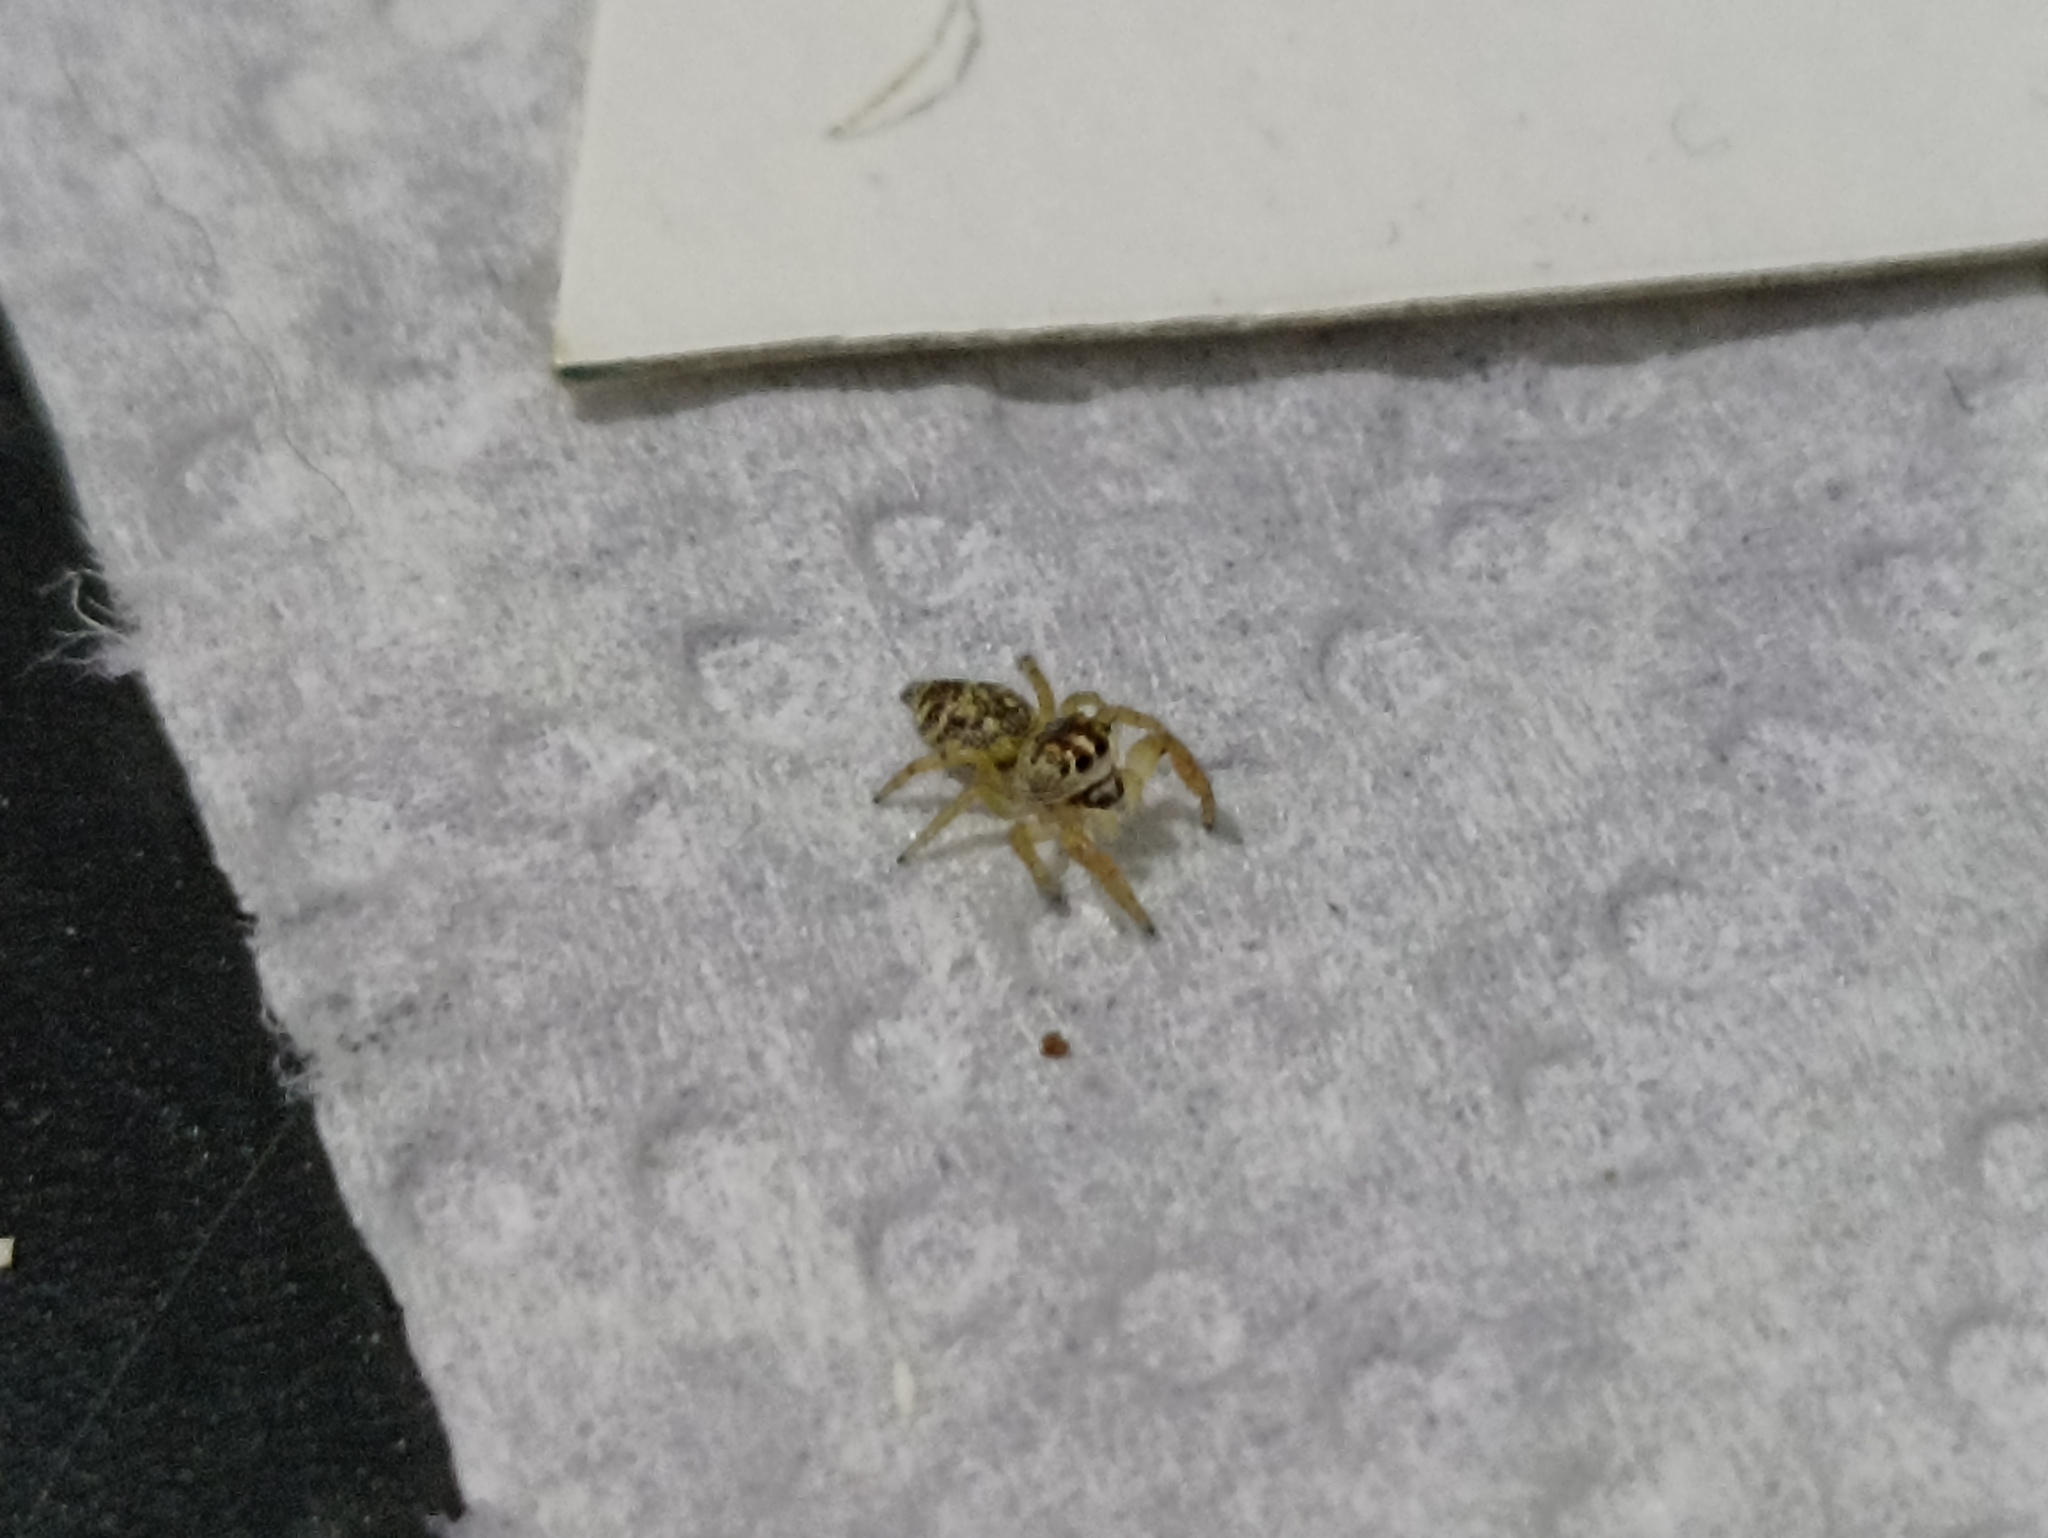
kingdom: Animalia
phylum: Arthropoda
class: Arachnida
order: Araneae
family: Salticidae
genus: Macaroeris
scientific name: Macaroeris nidicolens
